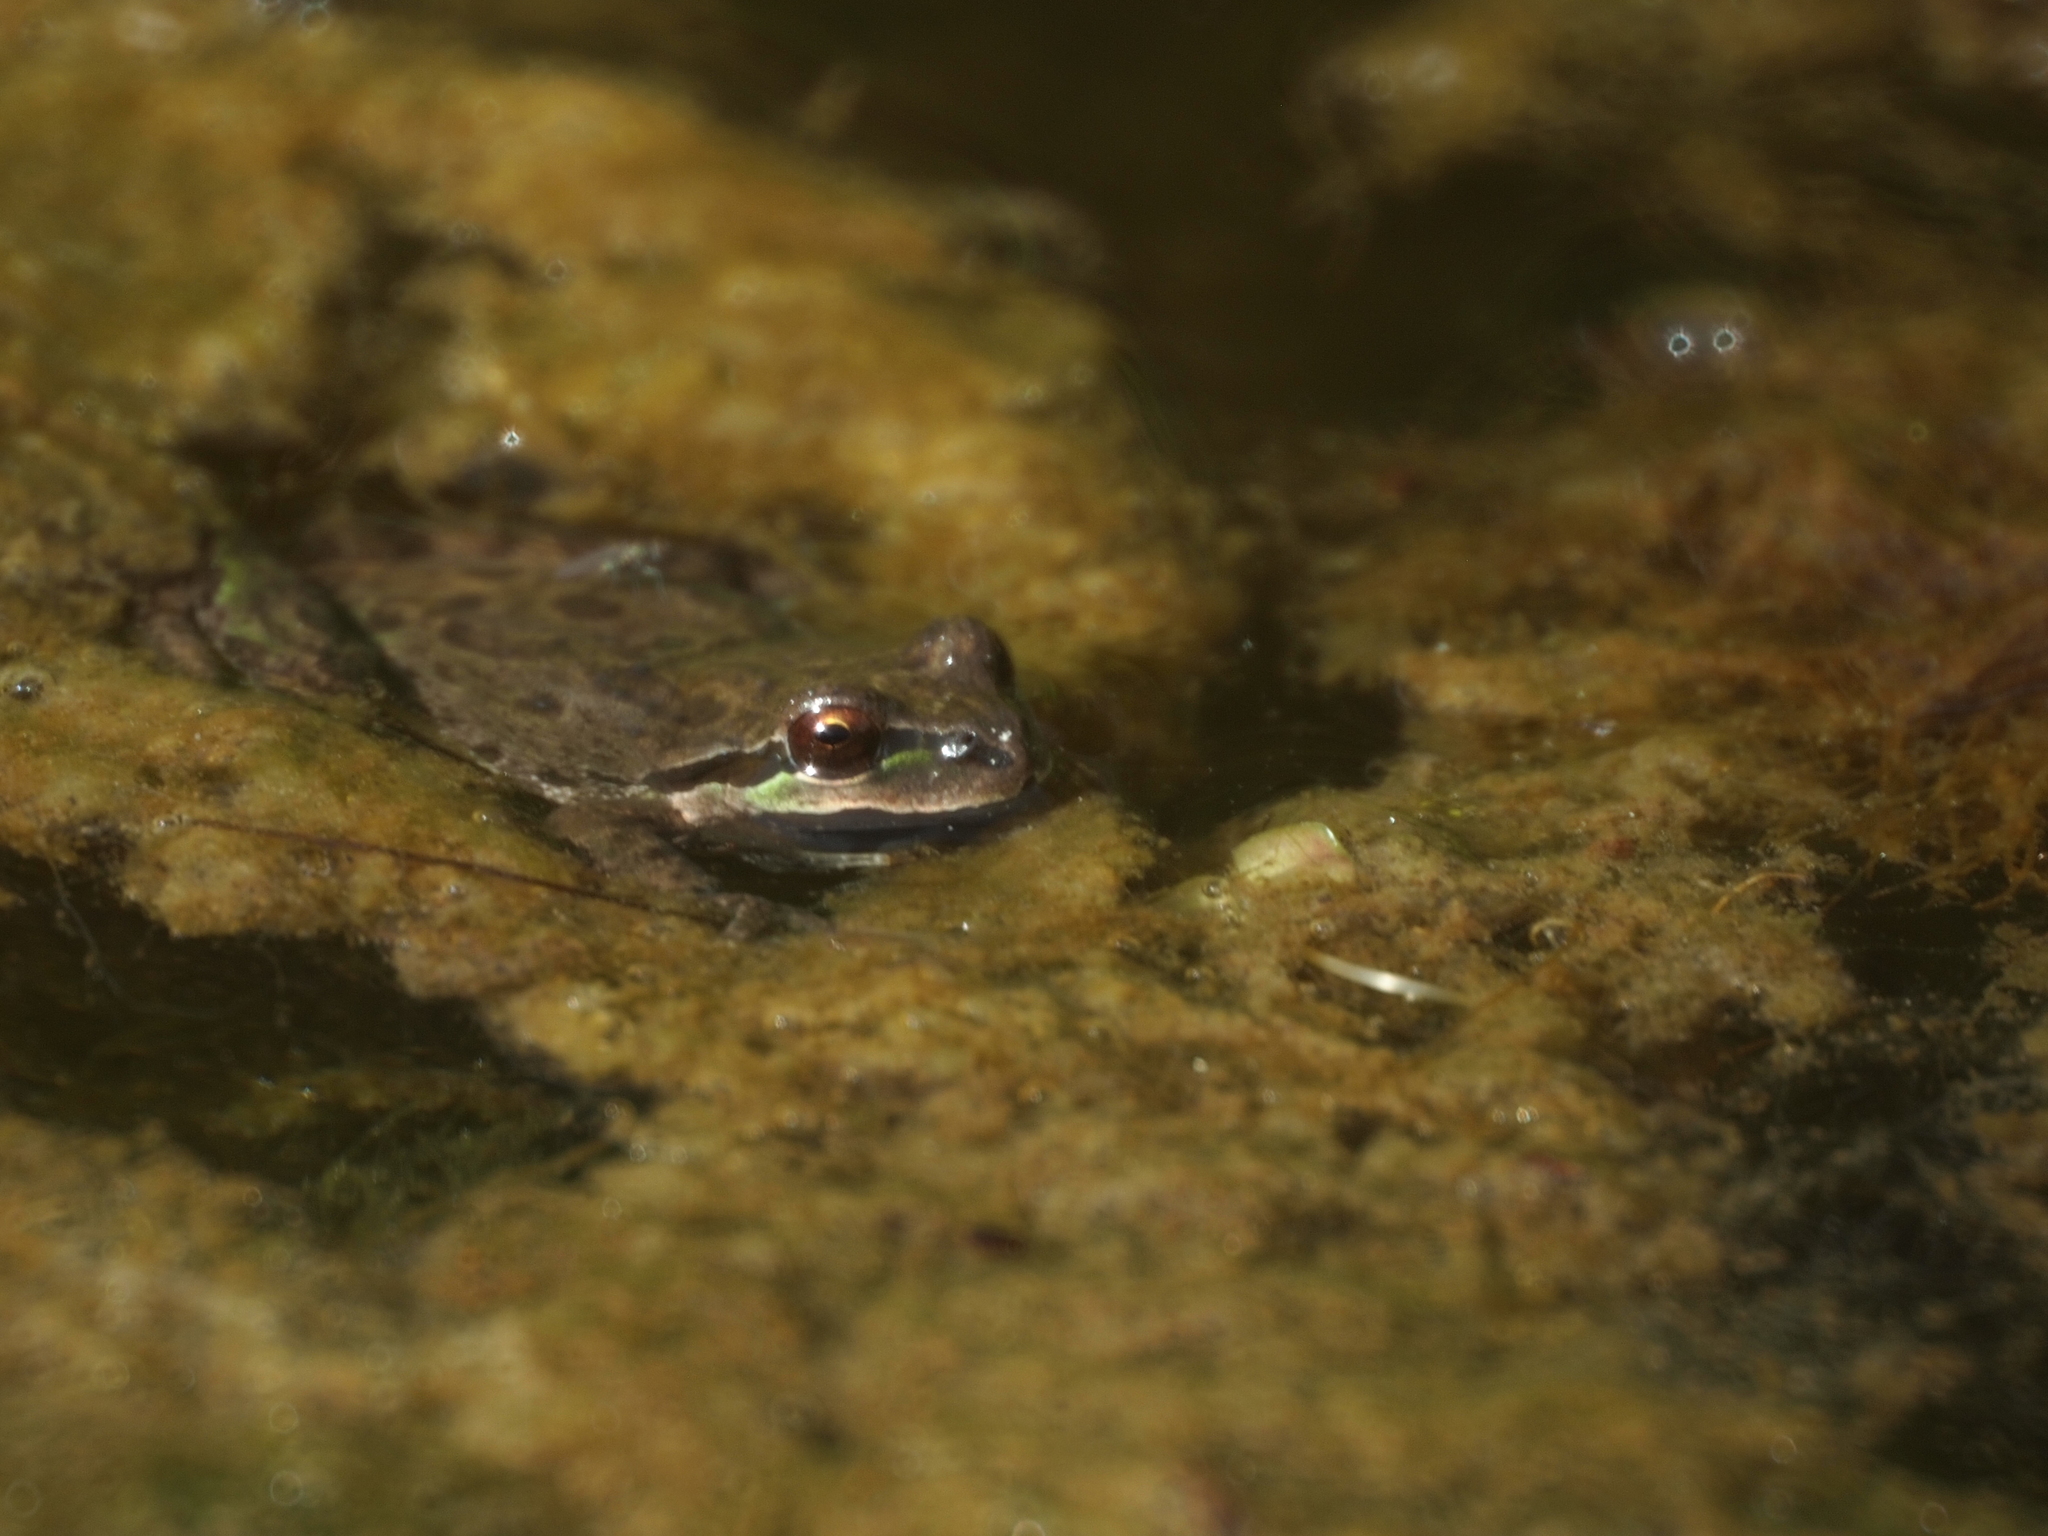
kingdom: Animalia
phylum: Chordata
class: Amphibia
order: Anura
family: Hylidae
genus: Pseudacris
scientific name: Pseudacris regilla
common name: Pacific chorus frog
